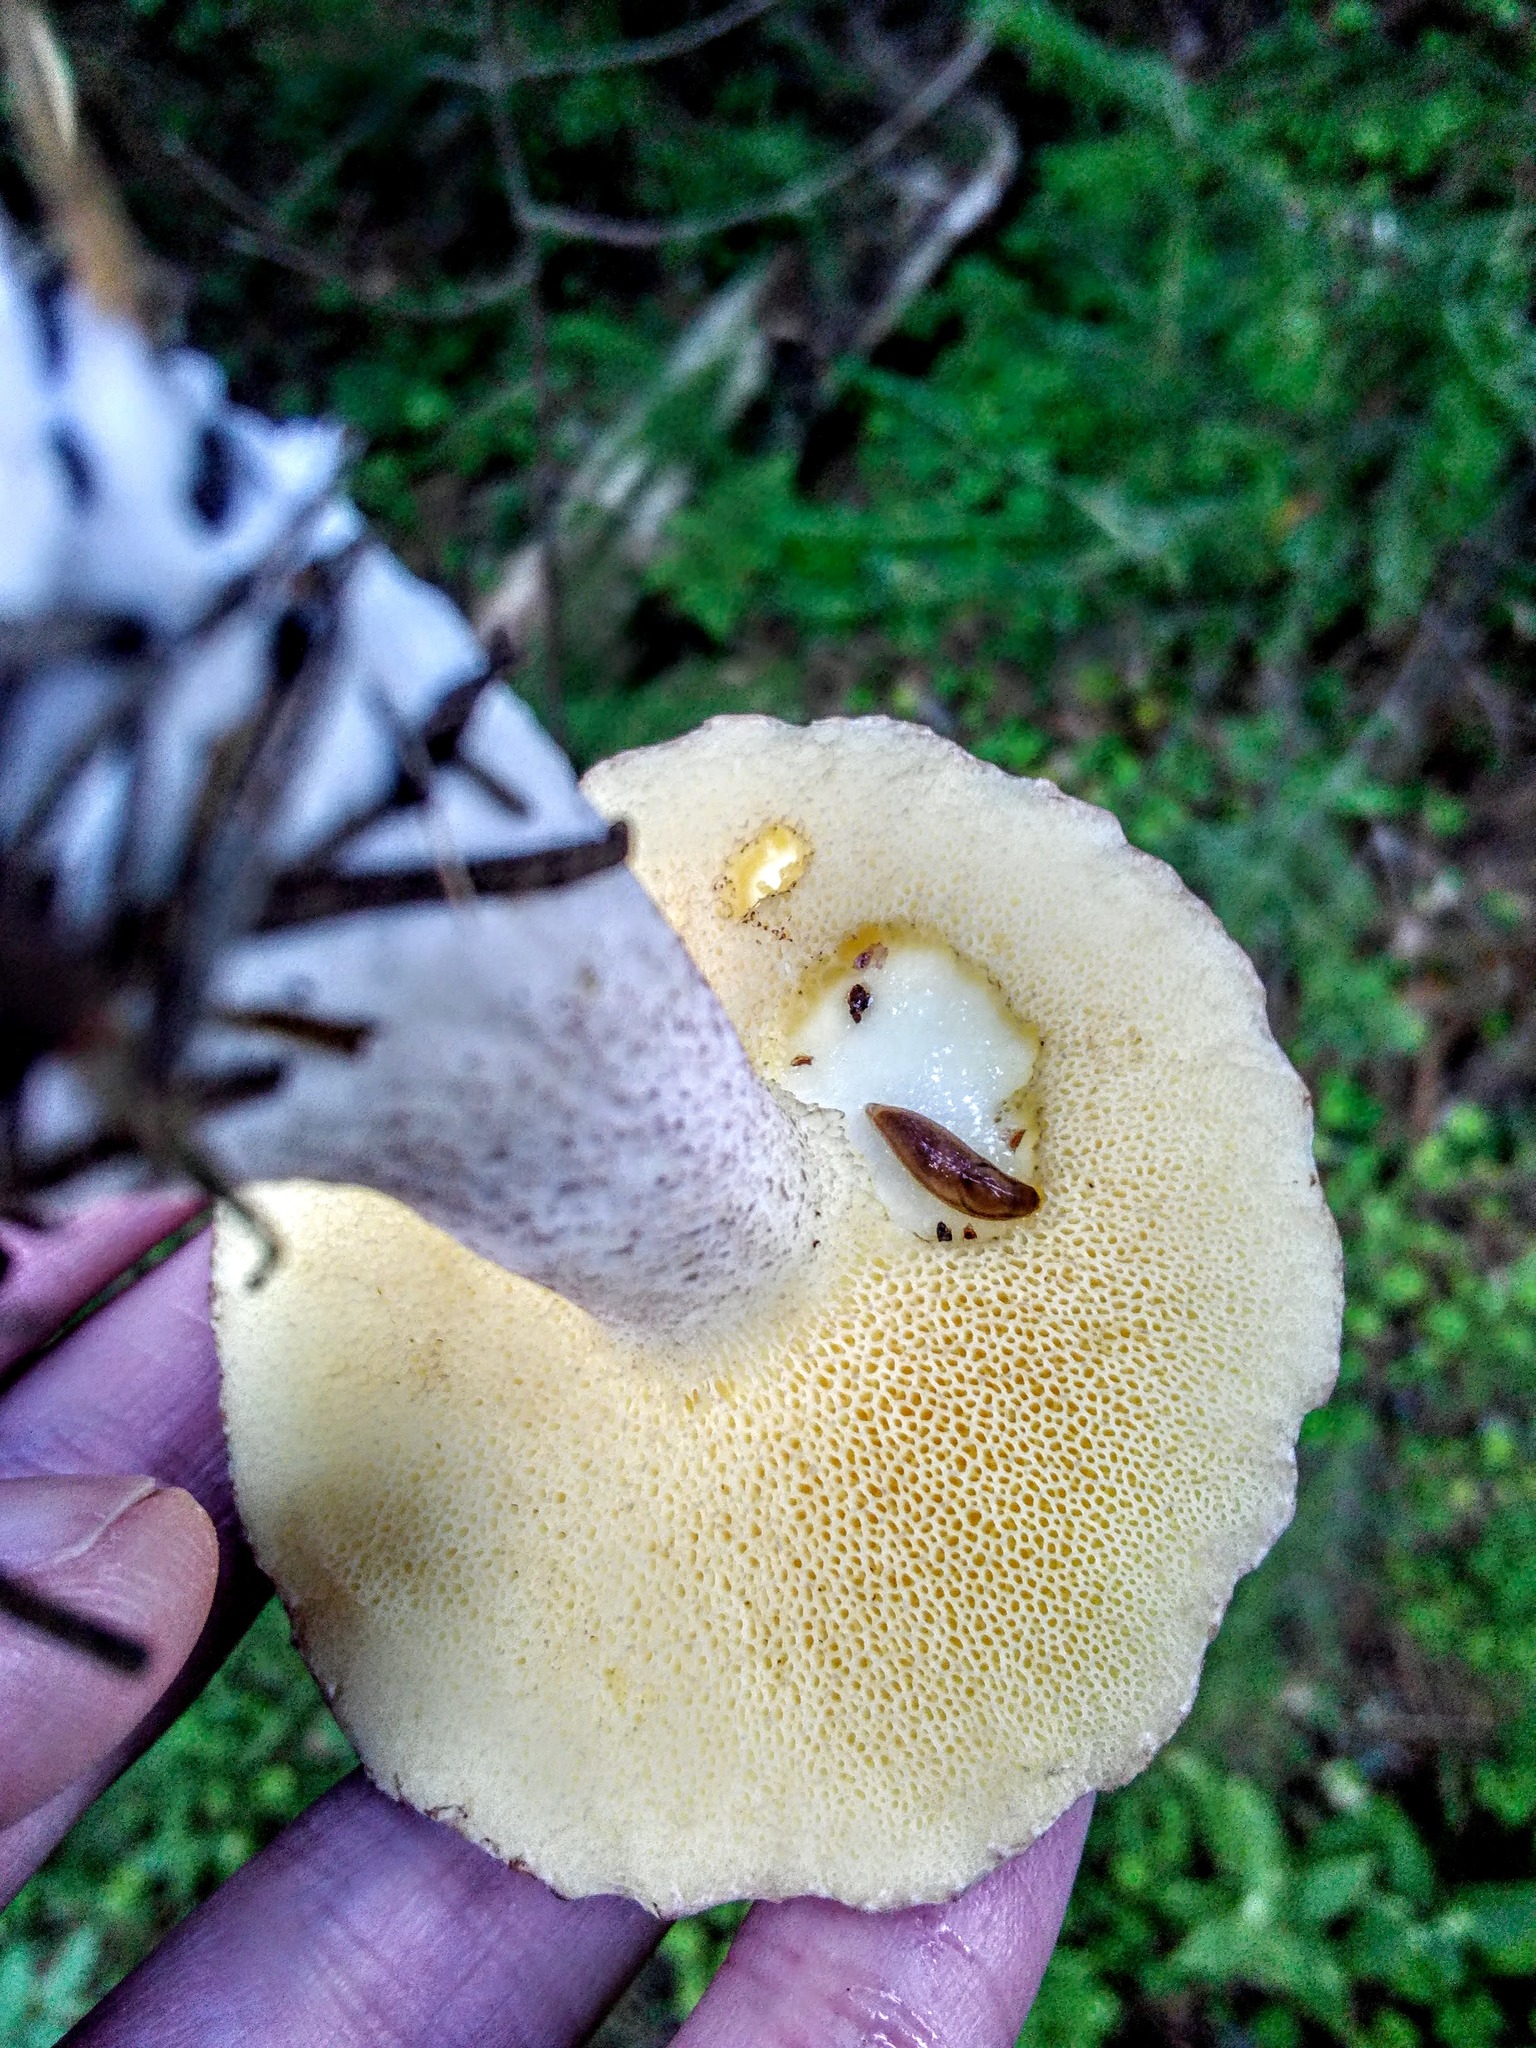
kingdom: Fungi
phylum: Basidiomycota
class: Agaricomycetes
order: Boletales
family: Suillaceae
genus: Suillus
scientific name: Suillus placidus
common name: Slippery white bolete
